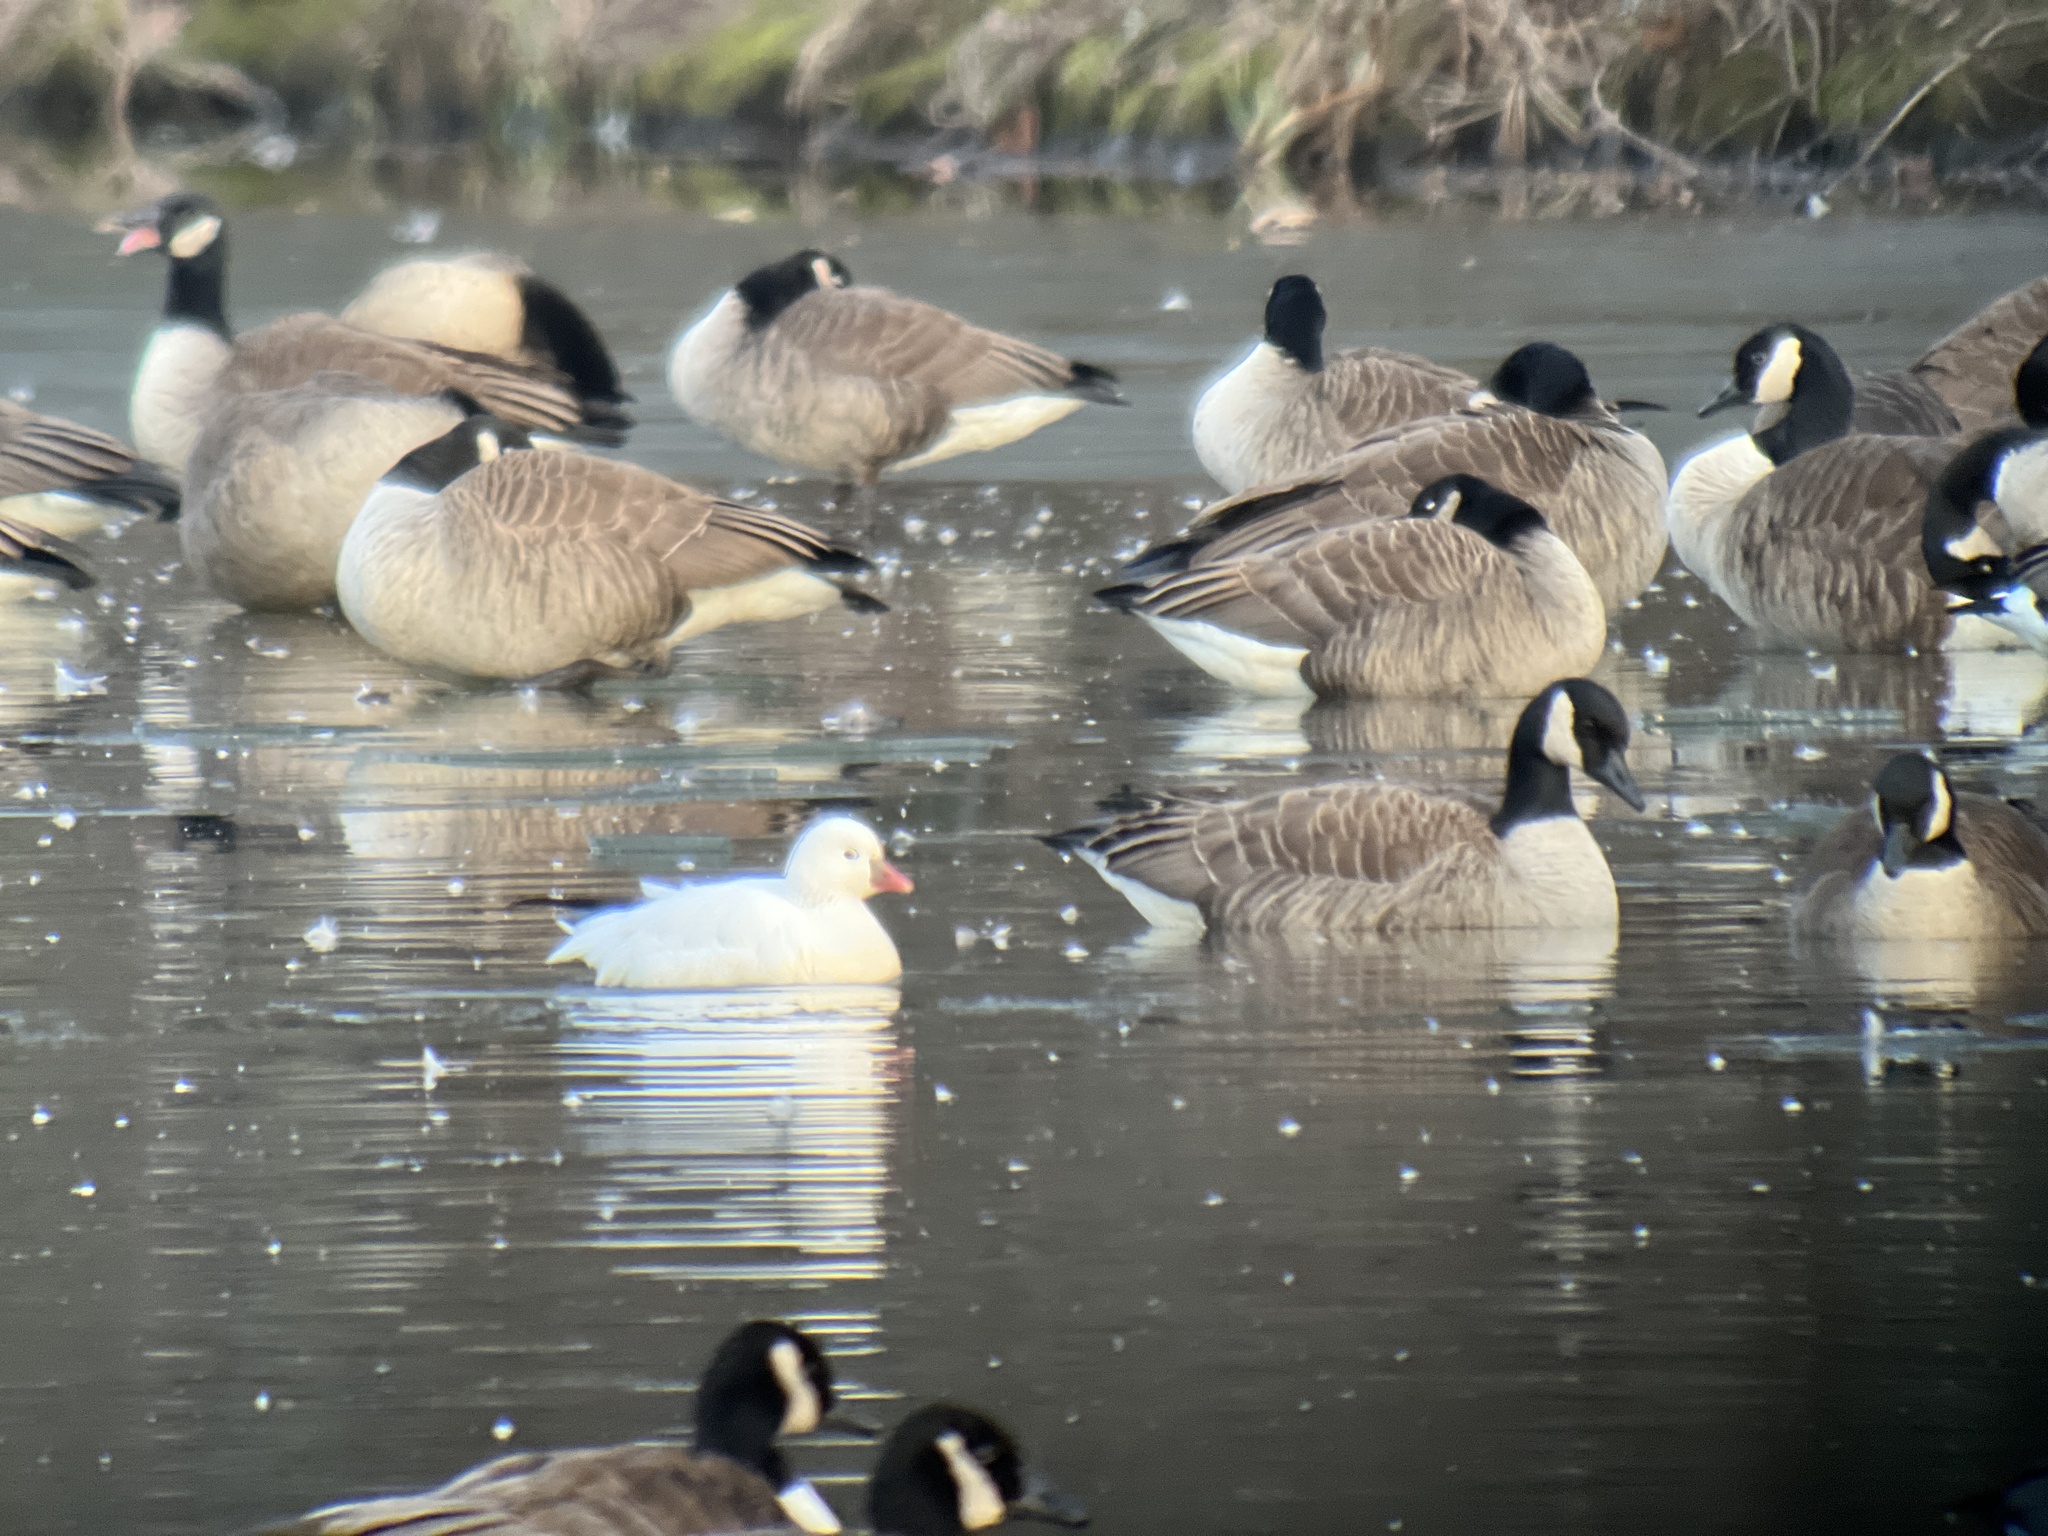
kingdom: Animalia
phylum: Chordata
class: Aves
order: Anseriformes
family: Anatidae
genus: Anser
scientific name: Anser rossii
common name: Ross's goose
